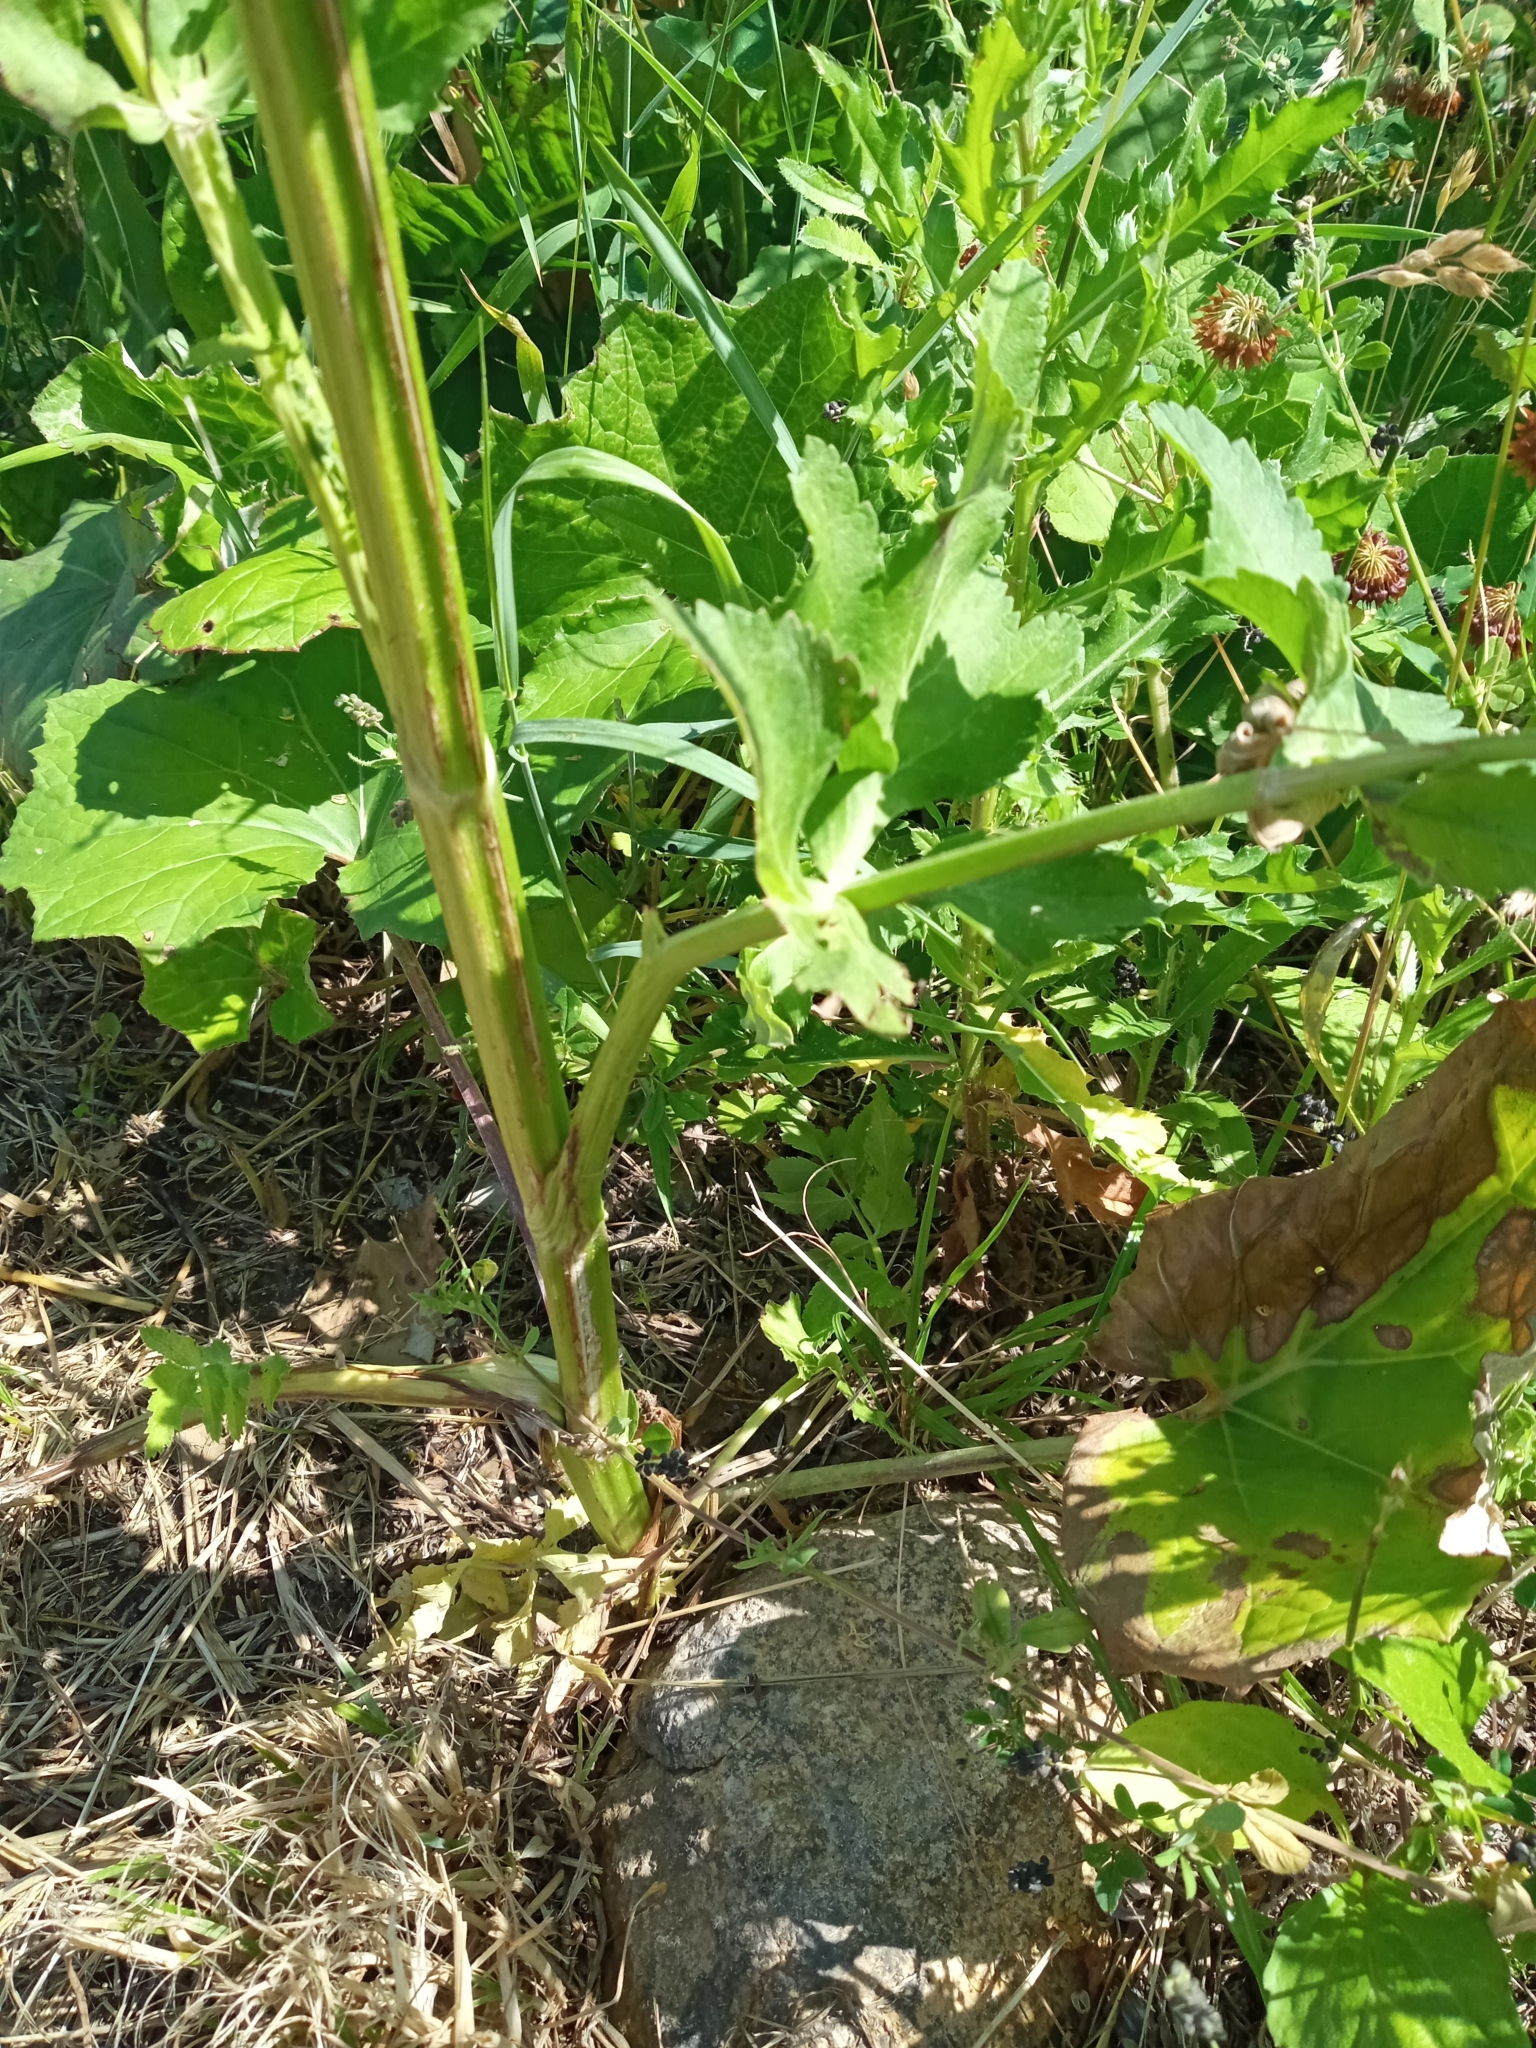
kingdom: Plantae
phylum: Tracheophyta
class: Magnoliopsida
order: Apiales
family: Apiaceae
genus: Pastinaca
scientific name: Pastinaca sativa
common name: Wild parsnip
